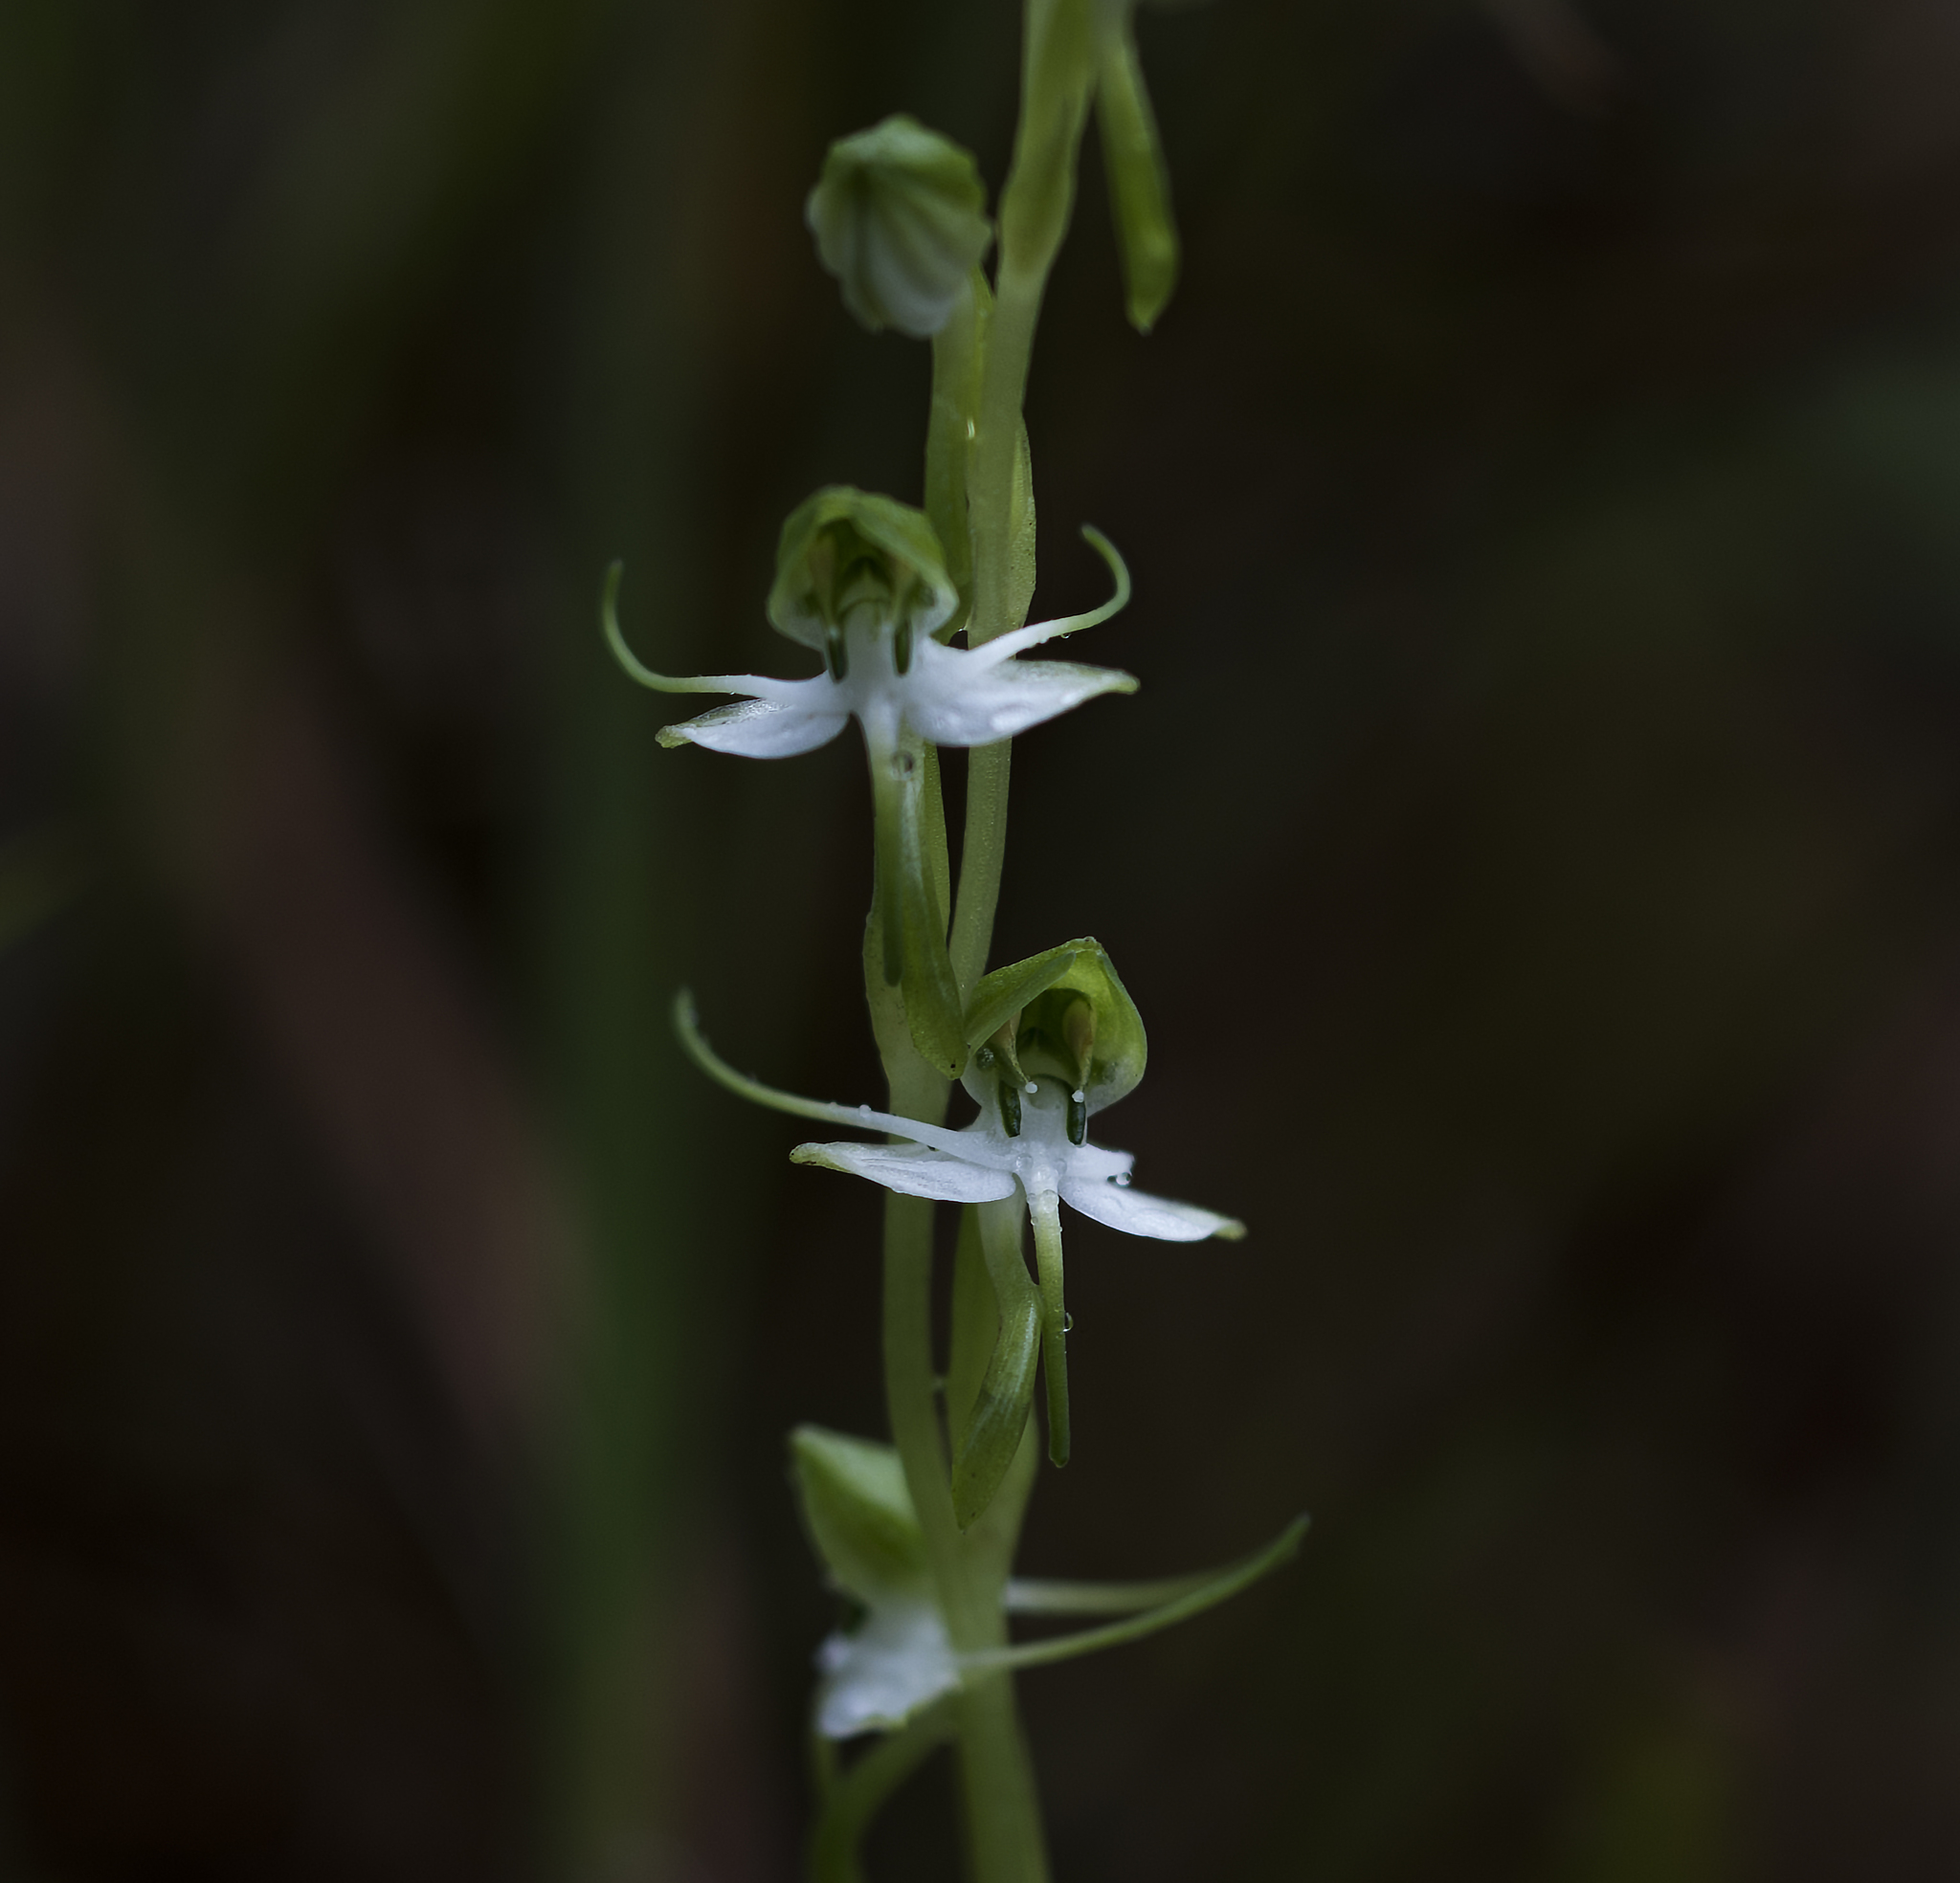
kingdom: Plantae
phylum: Tracheophyta
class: Liliopsida
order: Asparagales
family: Orchidaceae
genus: Habenaria
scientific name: Habenaria diphylla
